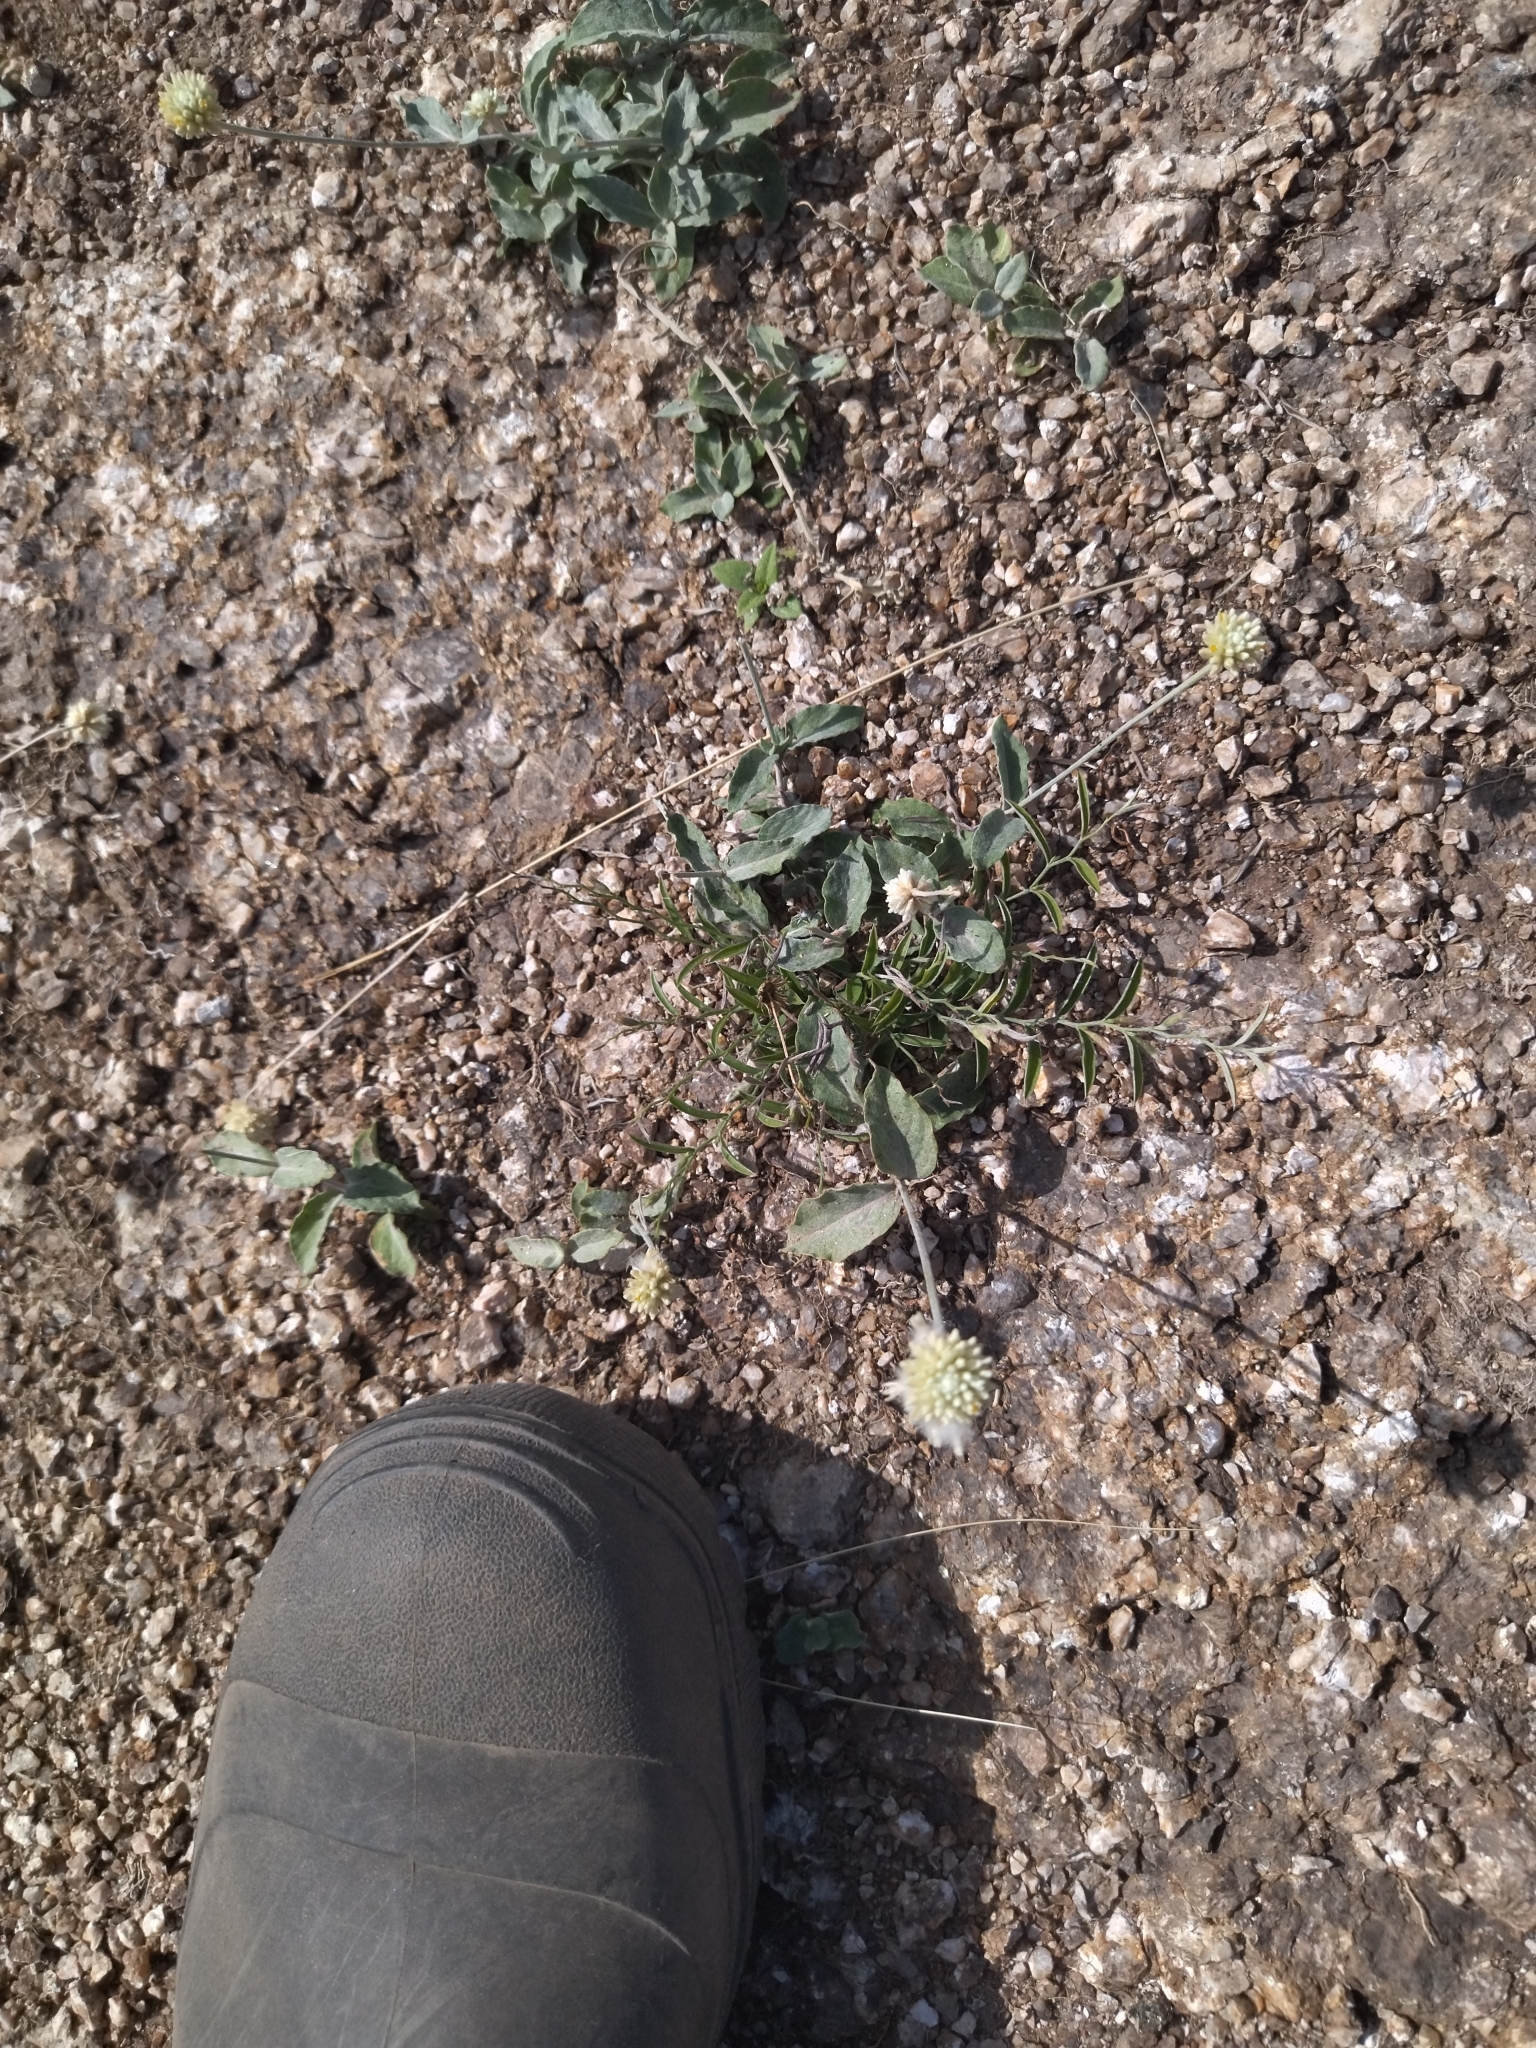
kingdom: Plantae
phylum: Tracheophyta
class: Magnoliopsida
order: Caryophyllales
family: Amaranthaceae
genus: Pfaffia
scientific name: Pfaffia gnaphalioides
